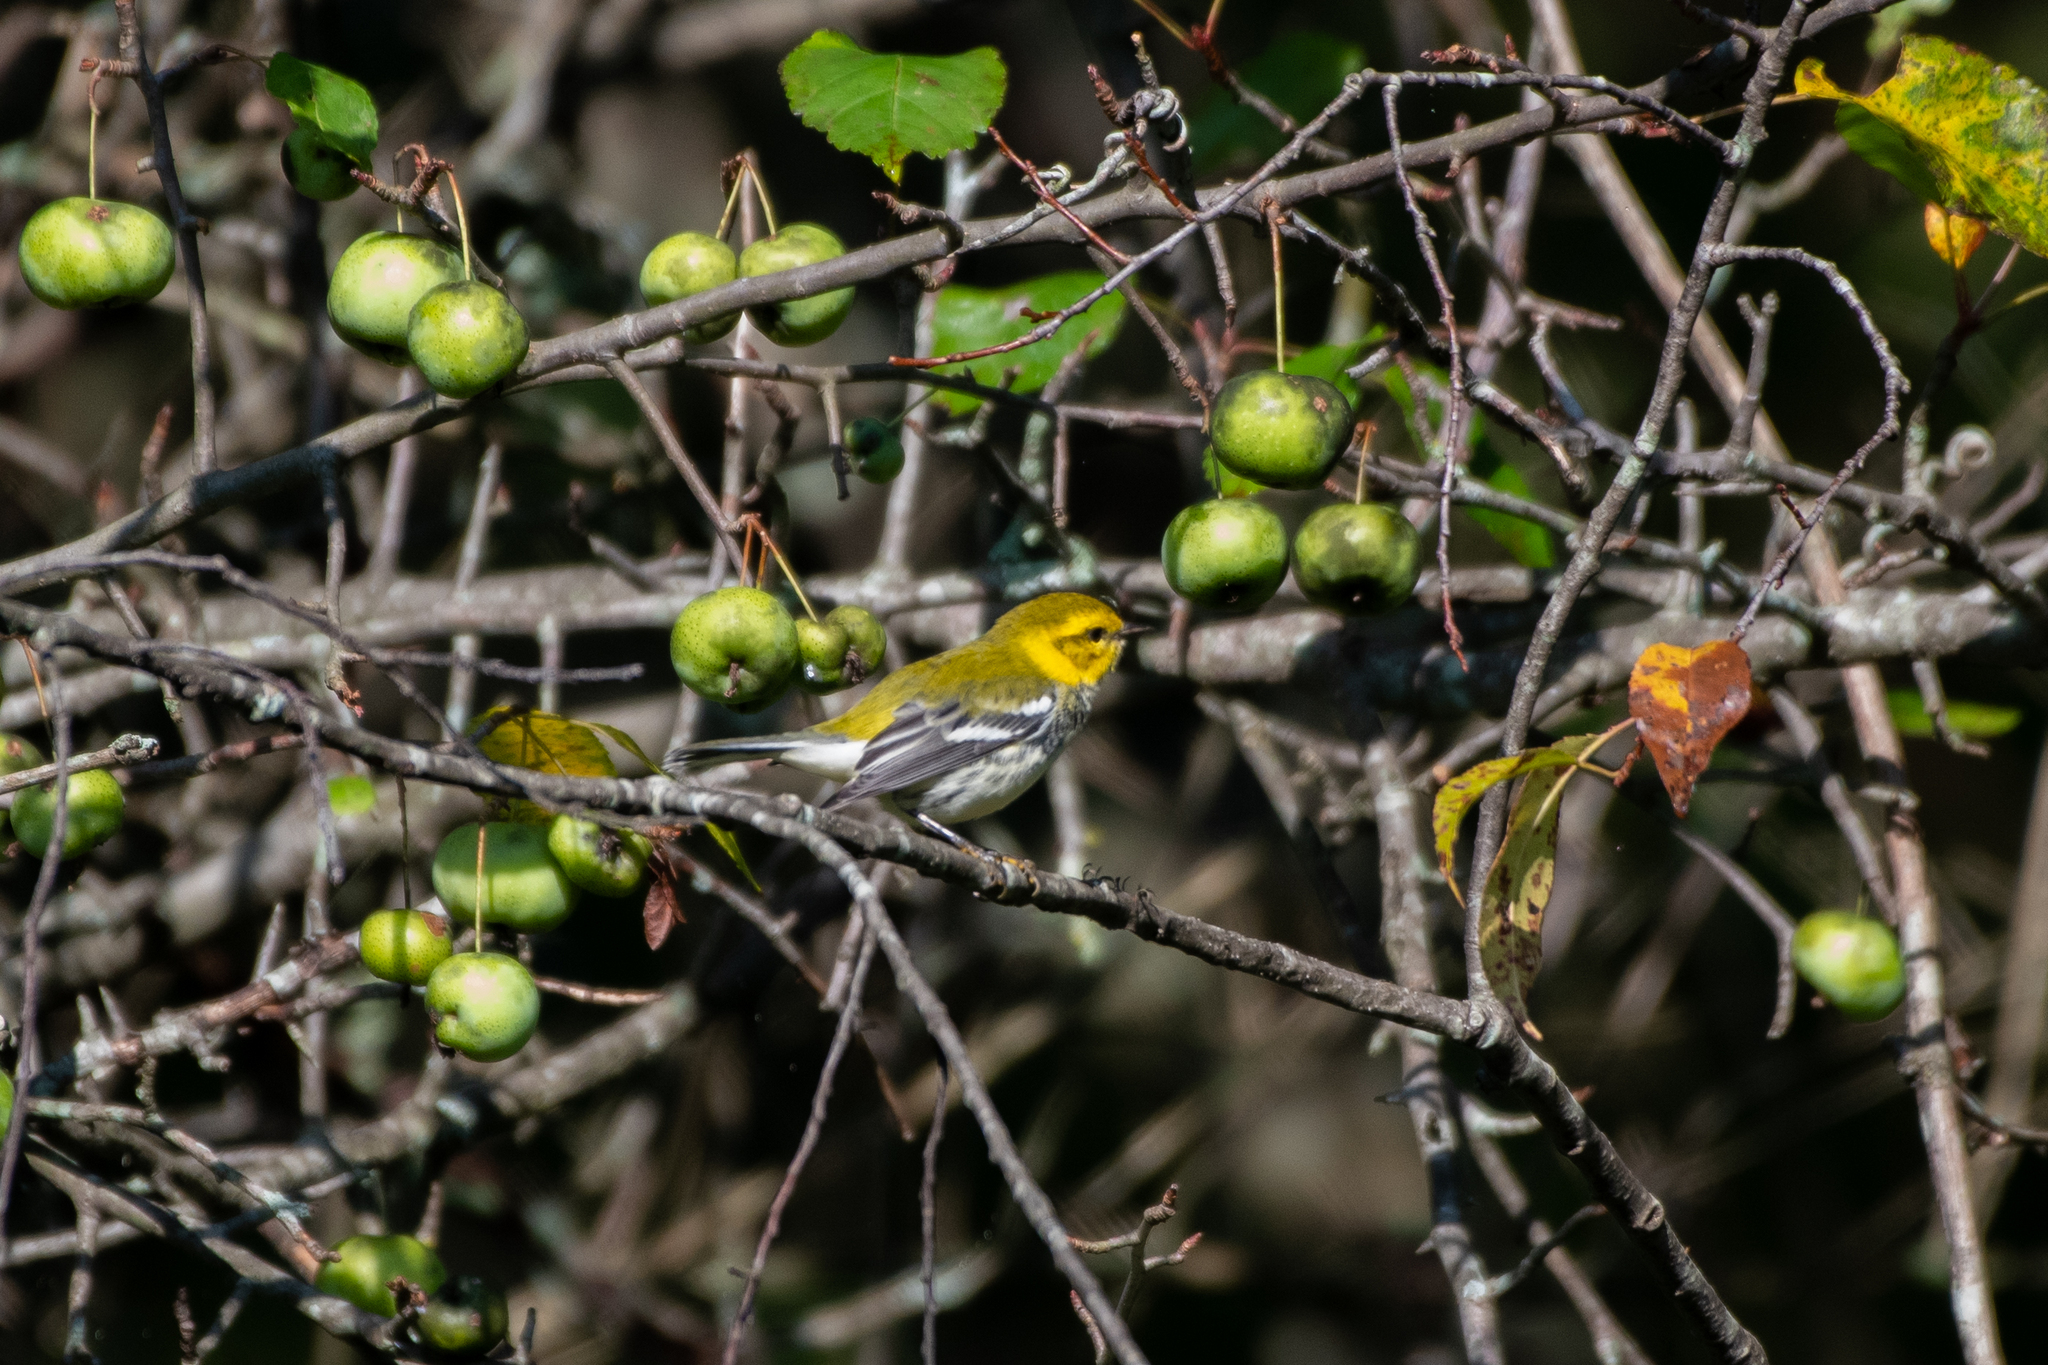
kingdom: Animalia
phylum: Chordata
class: Aves
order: Passeriformes
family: Parulidae
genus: Setophaga
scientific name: Setophaga virens
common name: Black-throated green warbler
